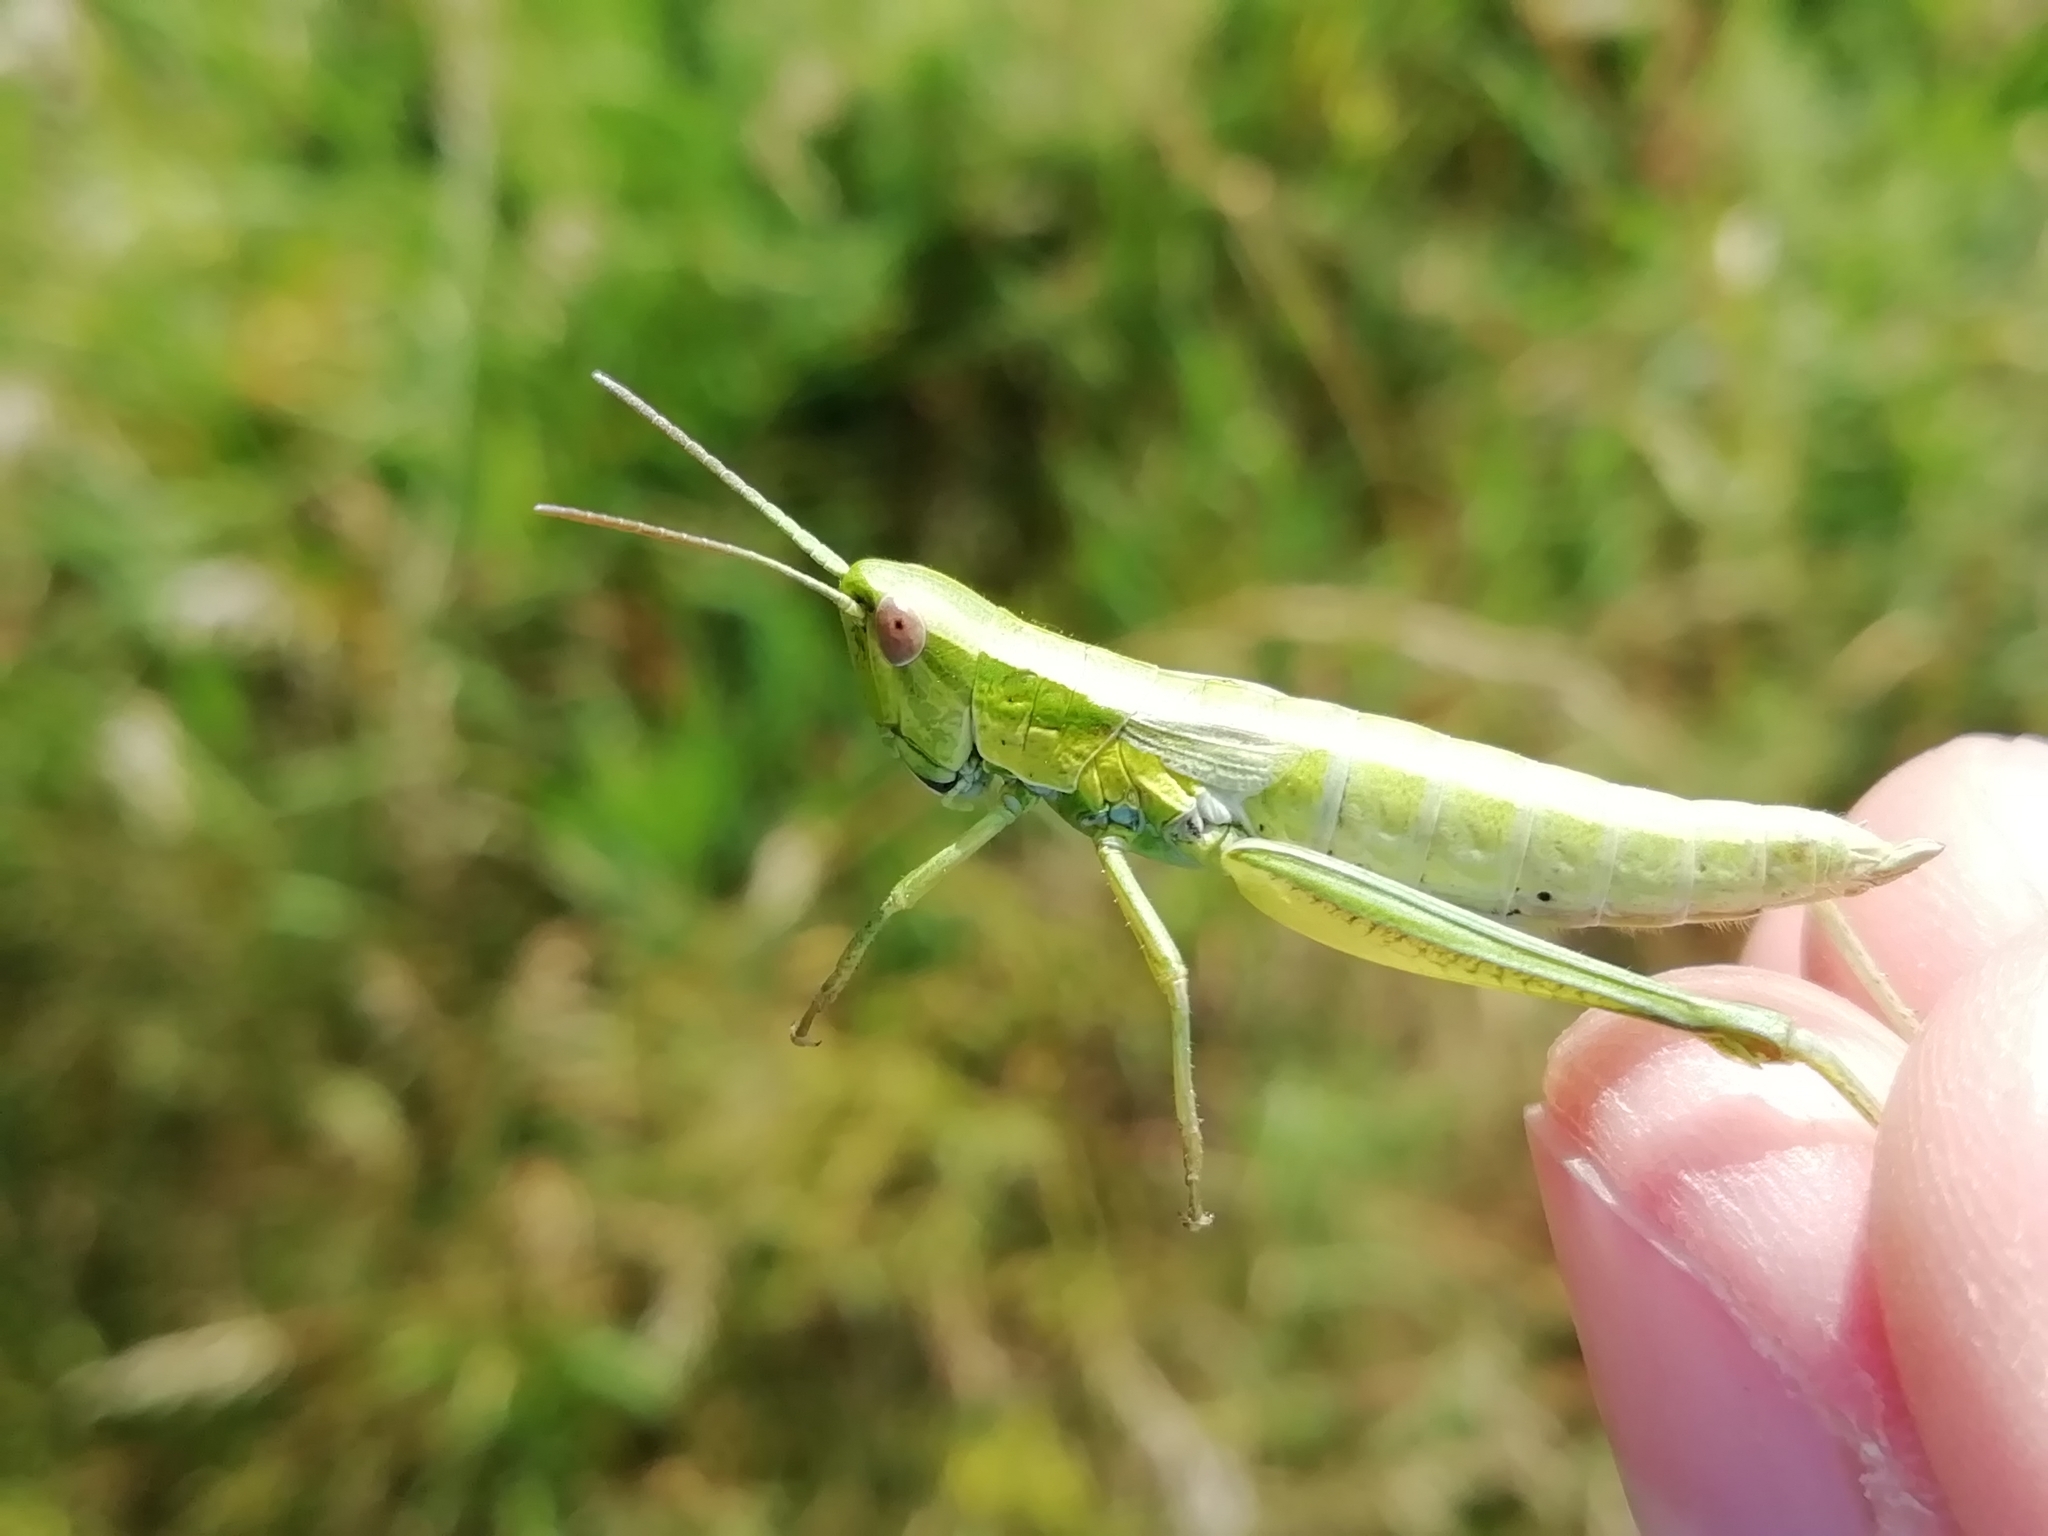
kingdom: Animalia
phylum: Arthropoda
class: Insecta
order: Orthoptera
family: Acrididae
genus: Euthystira
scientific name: Euthystira brachyptera
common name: Small gold grasshopper
